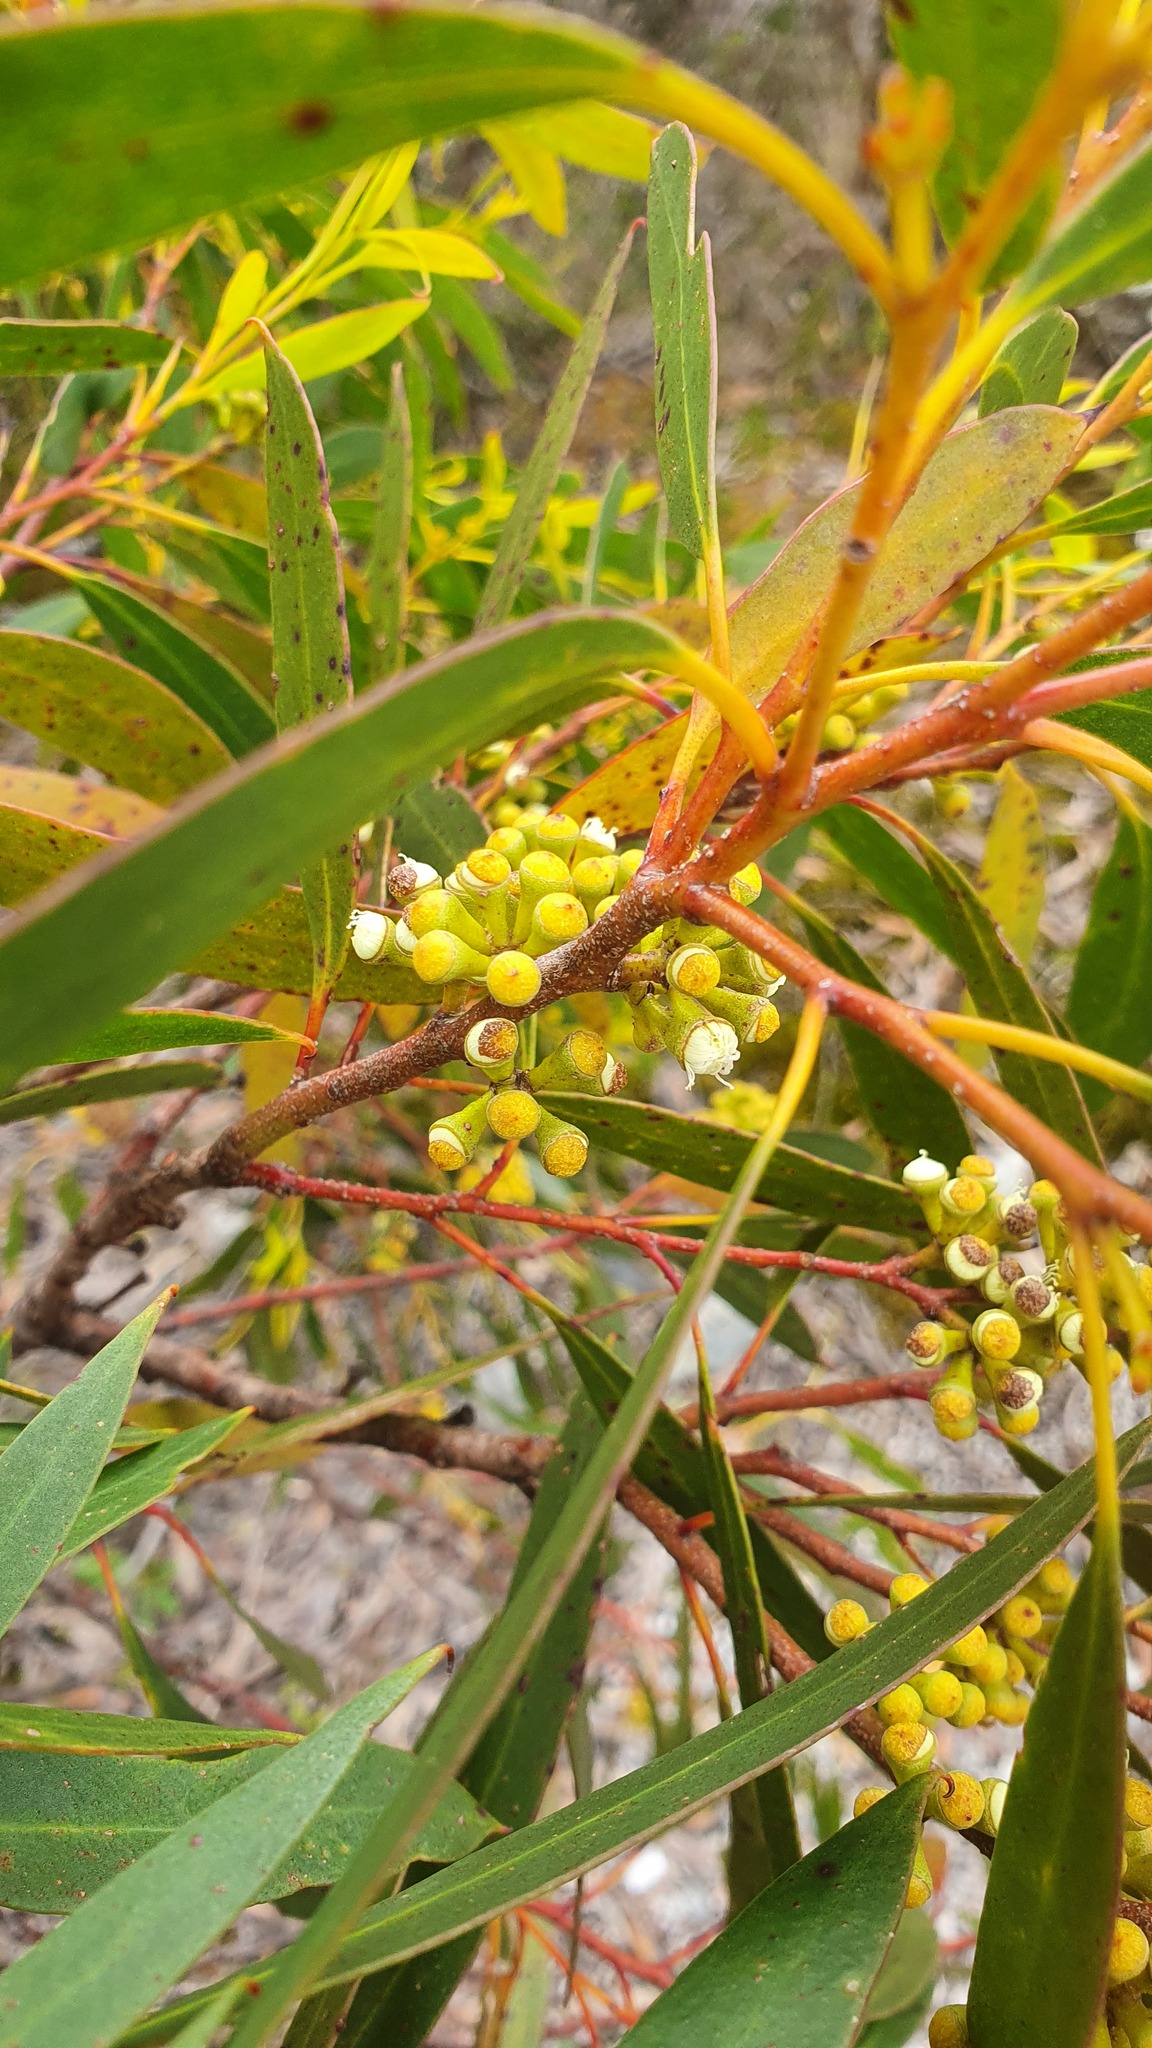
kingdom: Plantae
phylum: Tracheophyta
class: Magnoliopsida
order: Myrtales
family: Myrtaceae
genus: Eucalyptus
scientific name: Eucalyptus nitida
